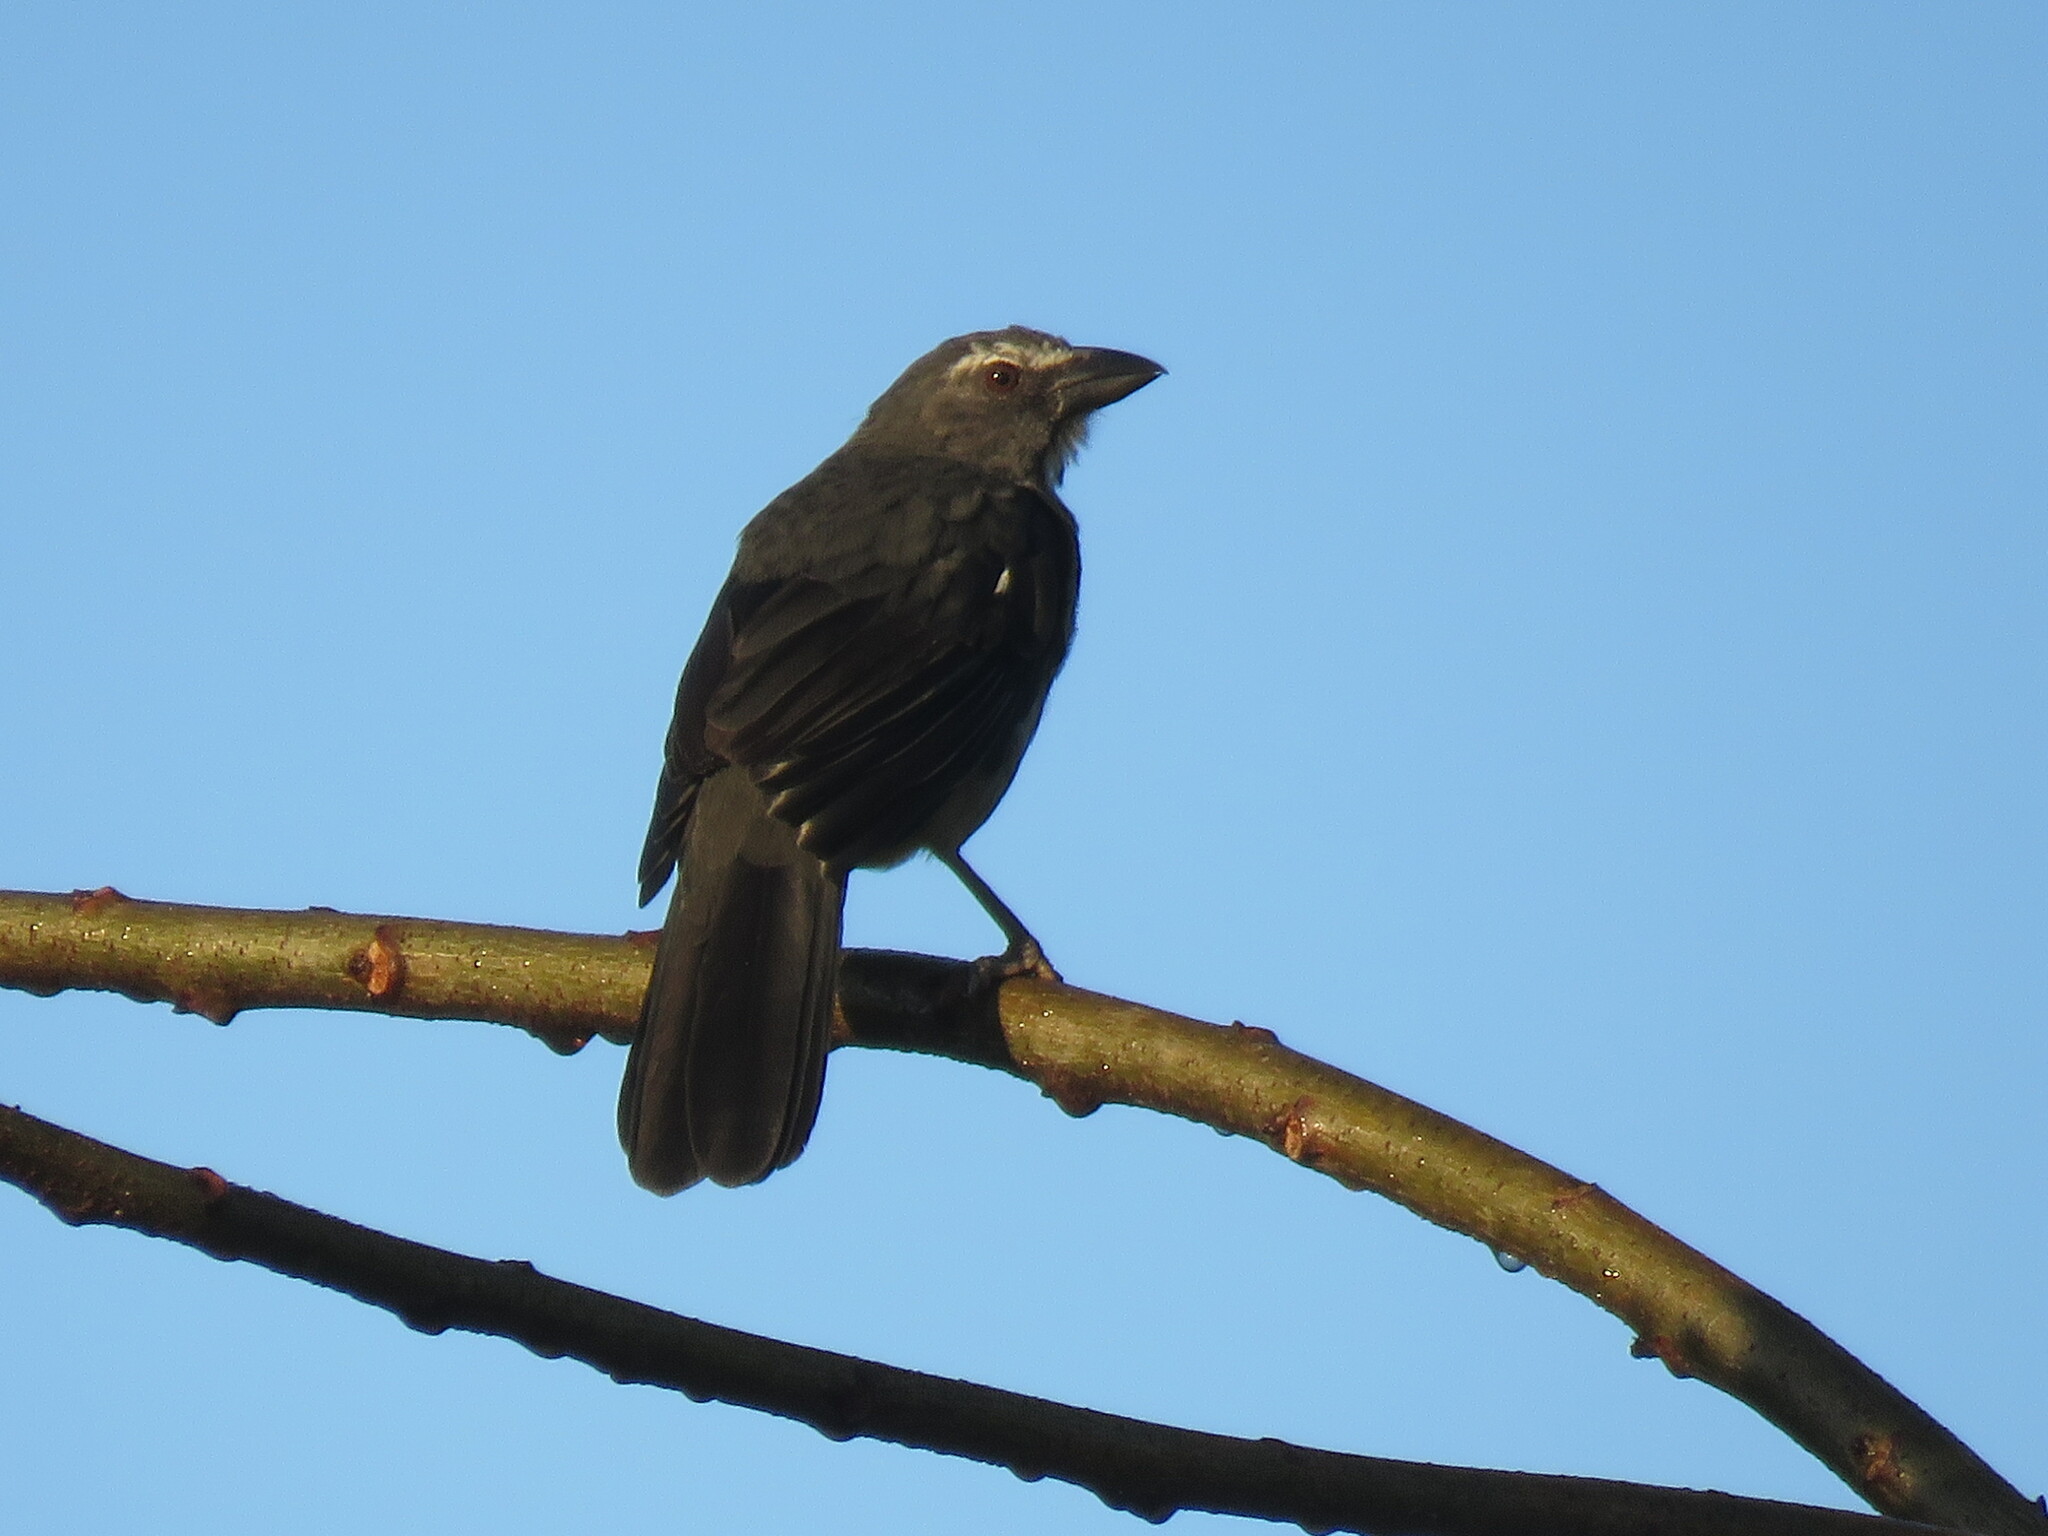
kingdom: Animalia
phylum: Chordata
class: Aves
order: Passeriformes
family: Thraupidae
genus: Saltator
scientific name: Saltator coerulescens
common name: Grayish saltator
